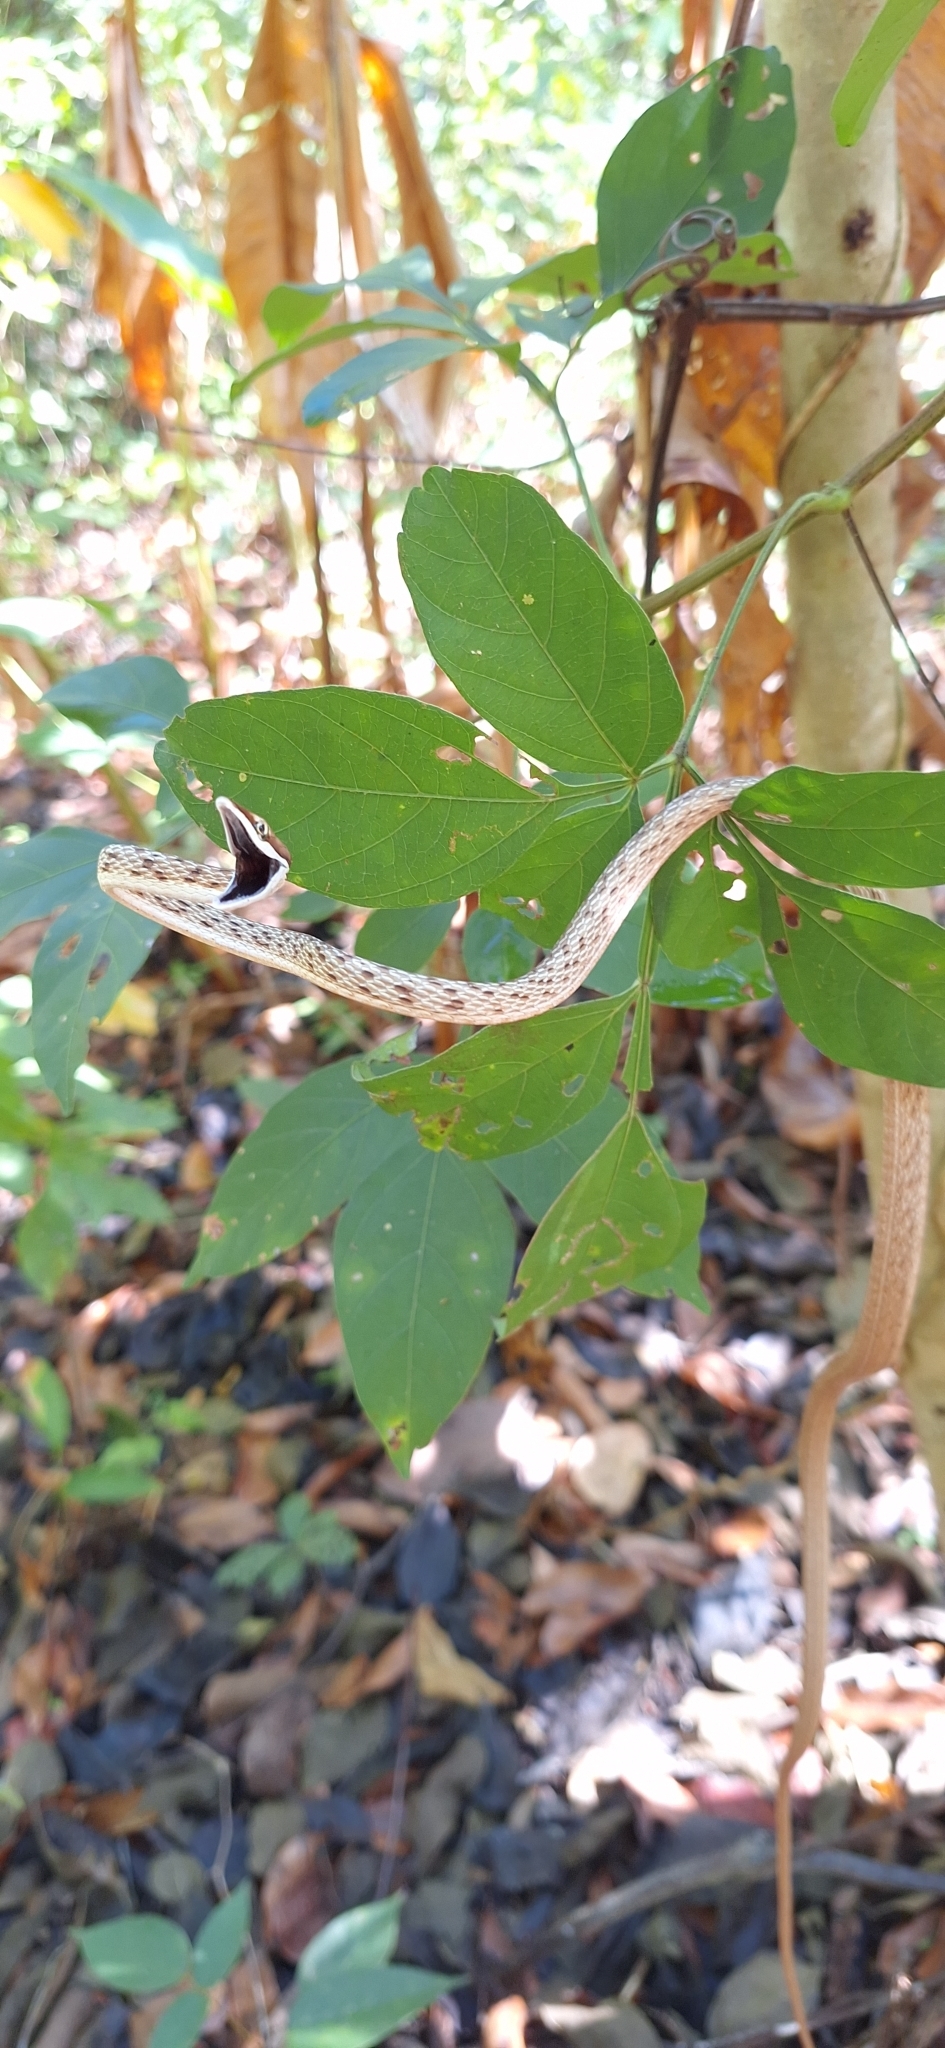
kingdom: Animalia
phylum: Chordata
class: Squamata
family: Colubridae
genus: Oxybelis
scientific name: Oxybelis vittatus
